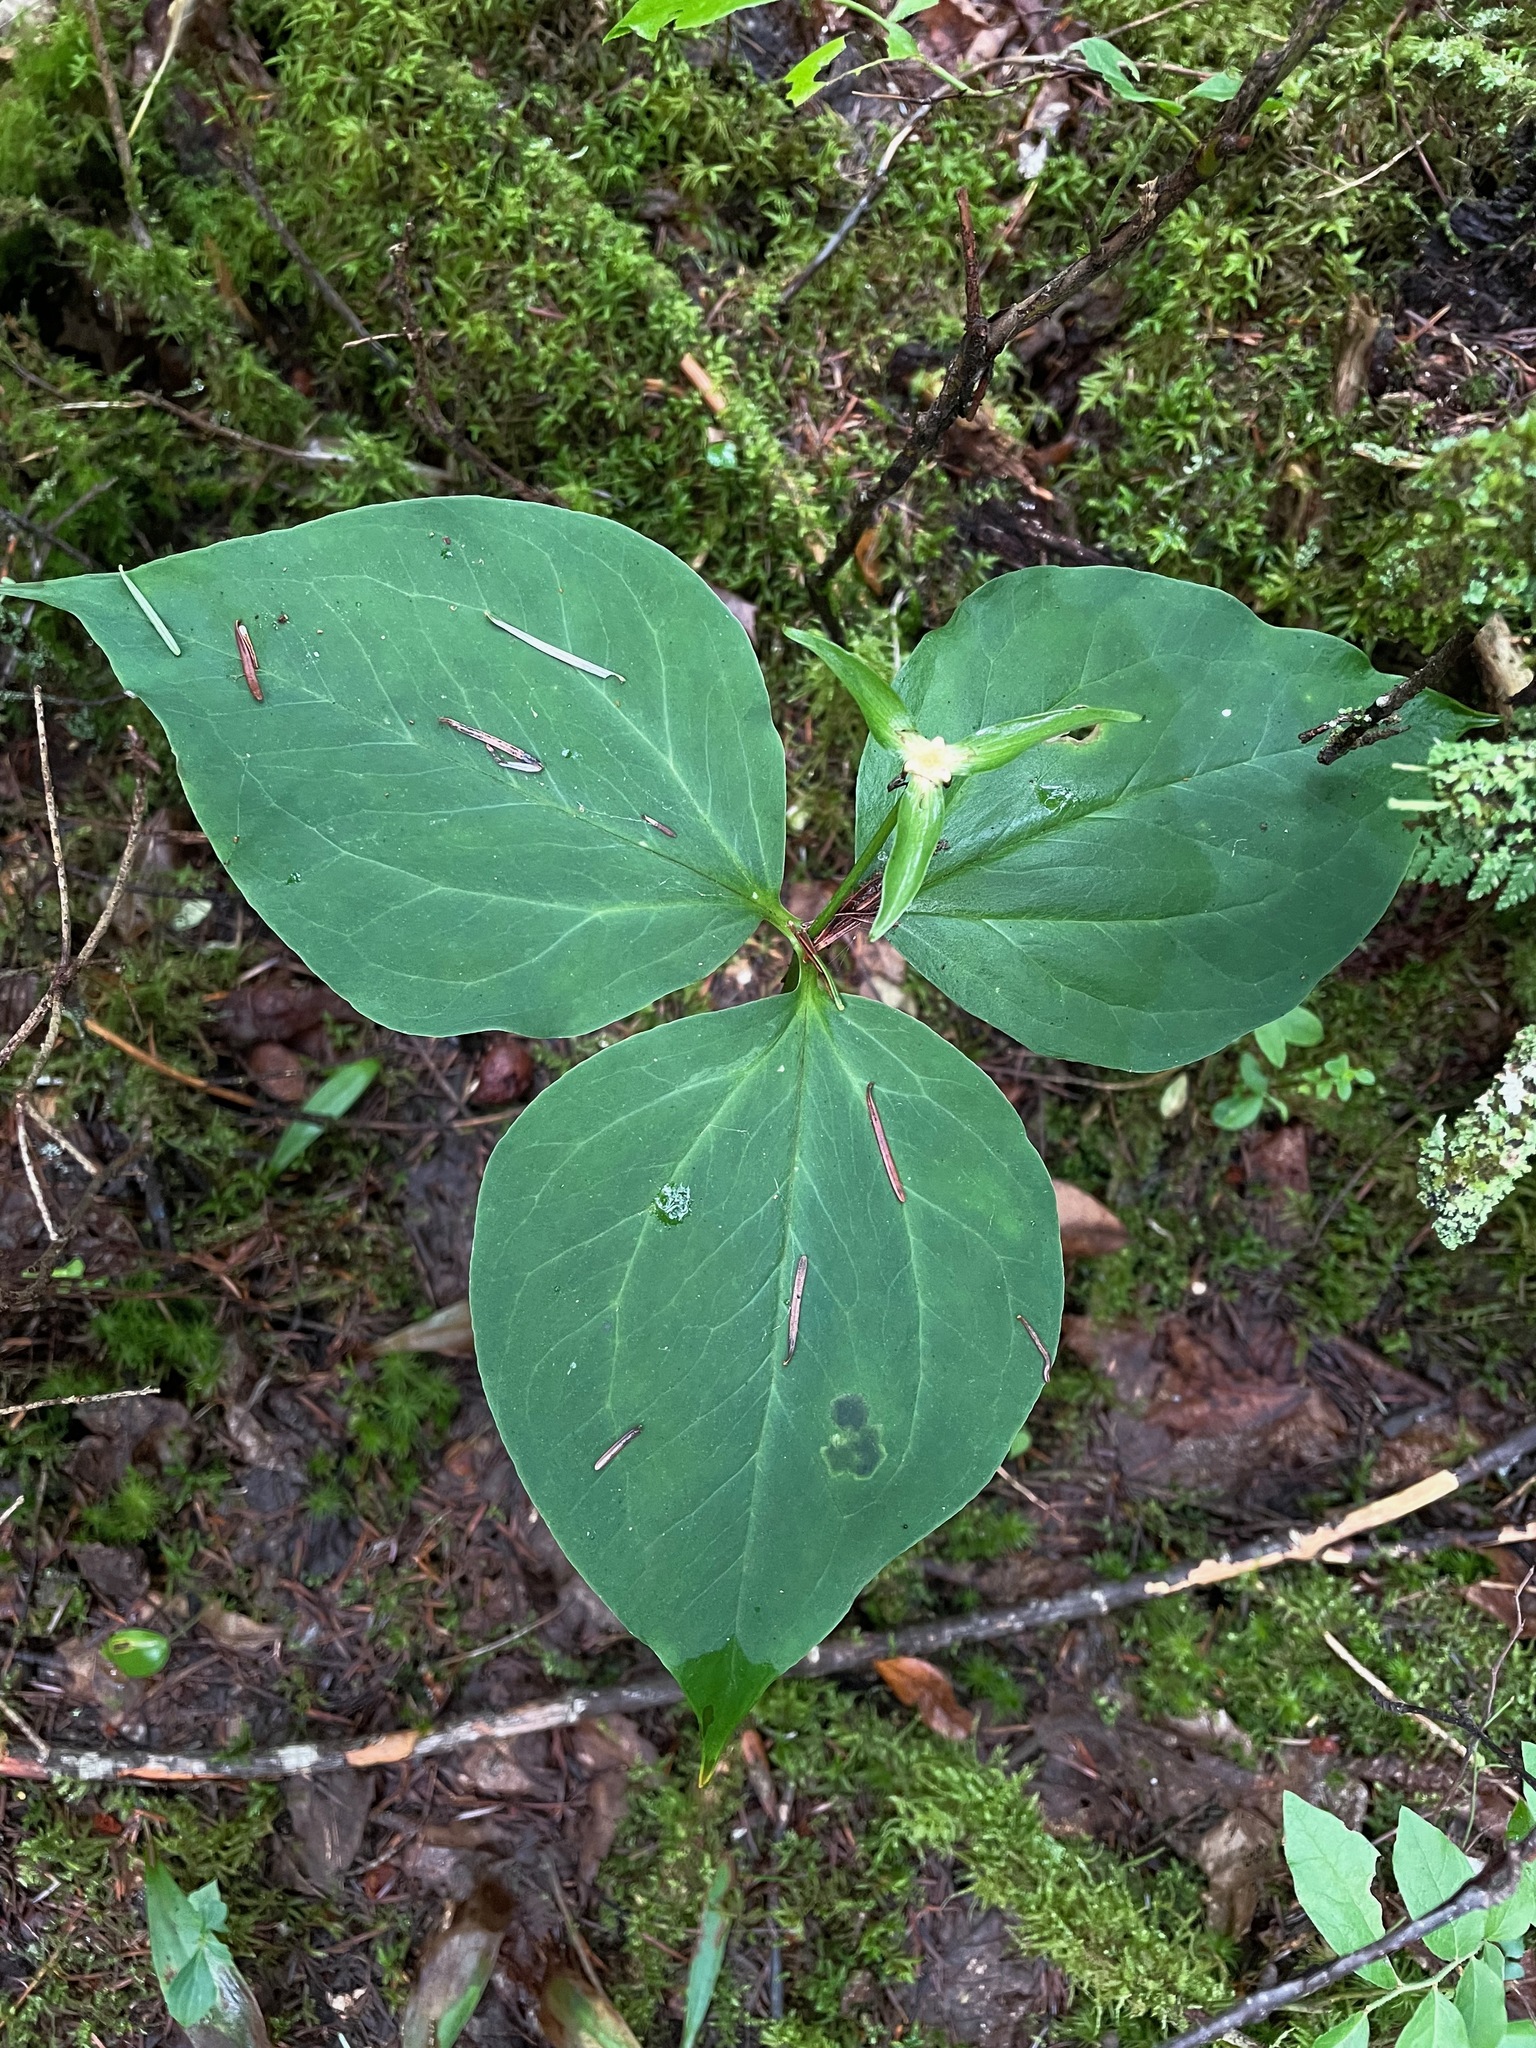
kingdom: Plantae
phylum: Tracheophyta
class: Liliopsida
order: Liliales
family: Melanthiaceae
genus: Trillium
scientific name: Trillium undulatum
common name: Paint trillium
